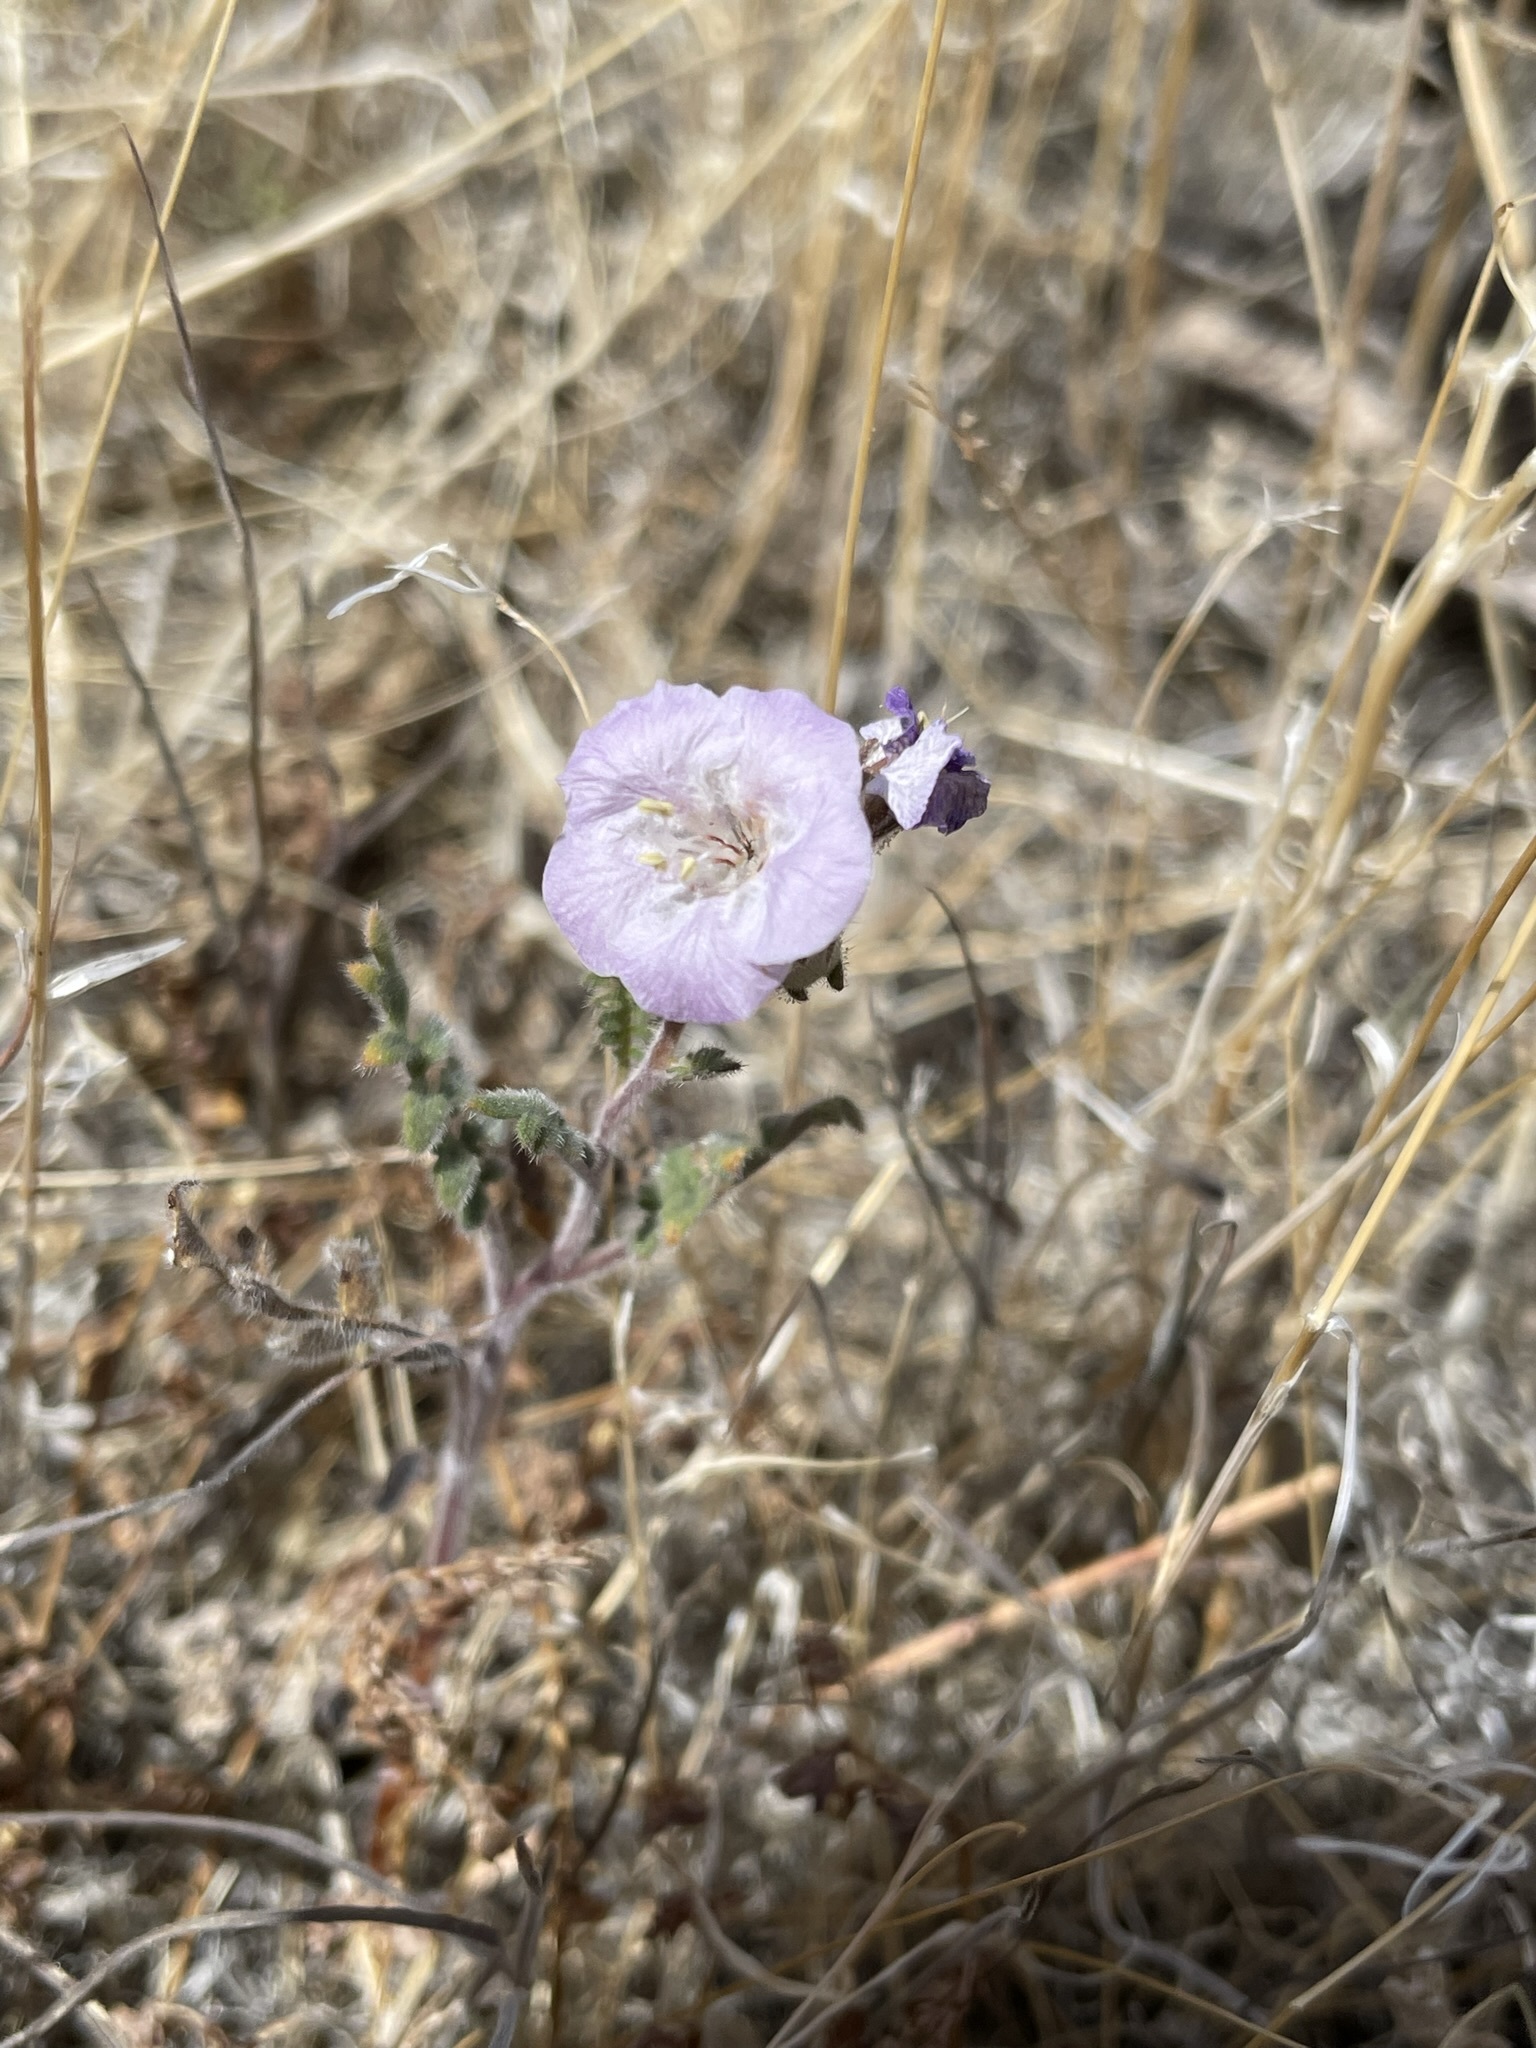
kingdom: Plantae
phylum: Tracheophyta
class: Magnoliopsida
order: Boraginales
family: Hydrophyllaceae
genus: Phacelia
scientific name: Phacelia vallis-mortae
